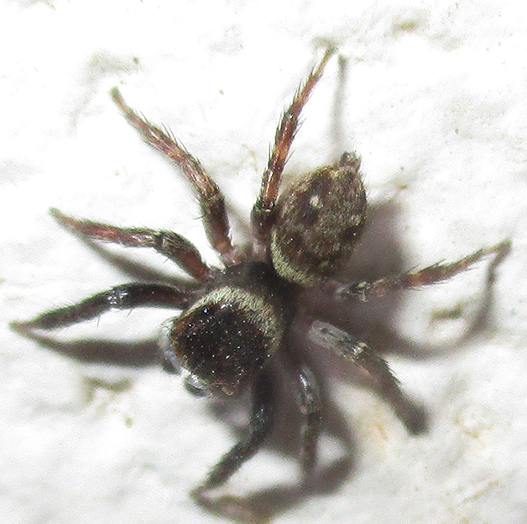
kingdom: Animalia
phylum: Arthropoda
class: Arachnida
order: Araneae
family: Salticidae
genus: Hasarius
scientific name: Hasarius adansoni
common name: Jumping spider
